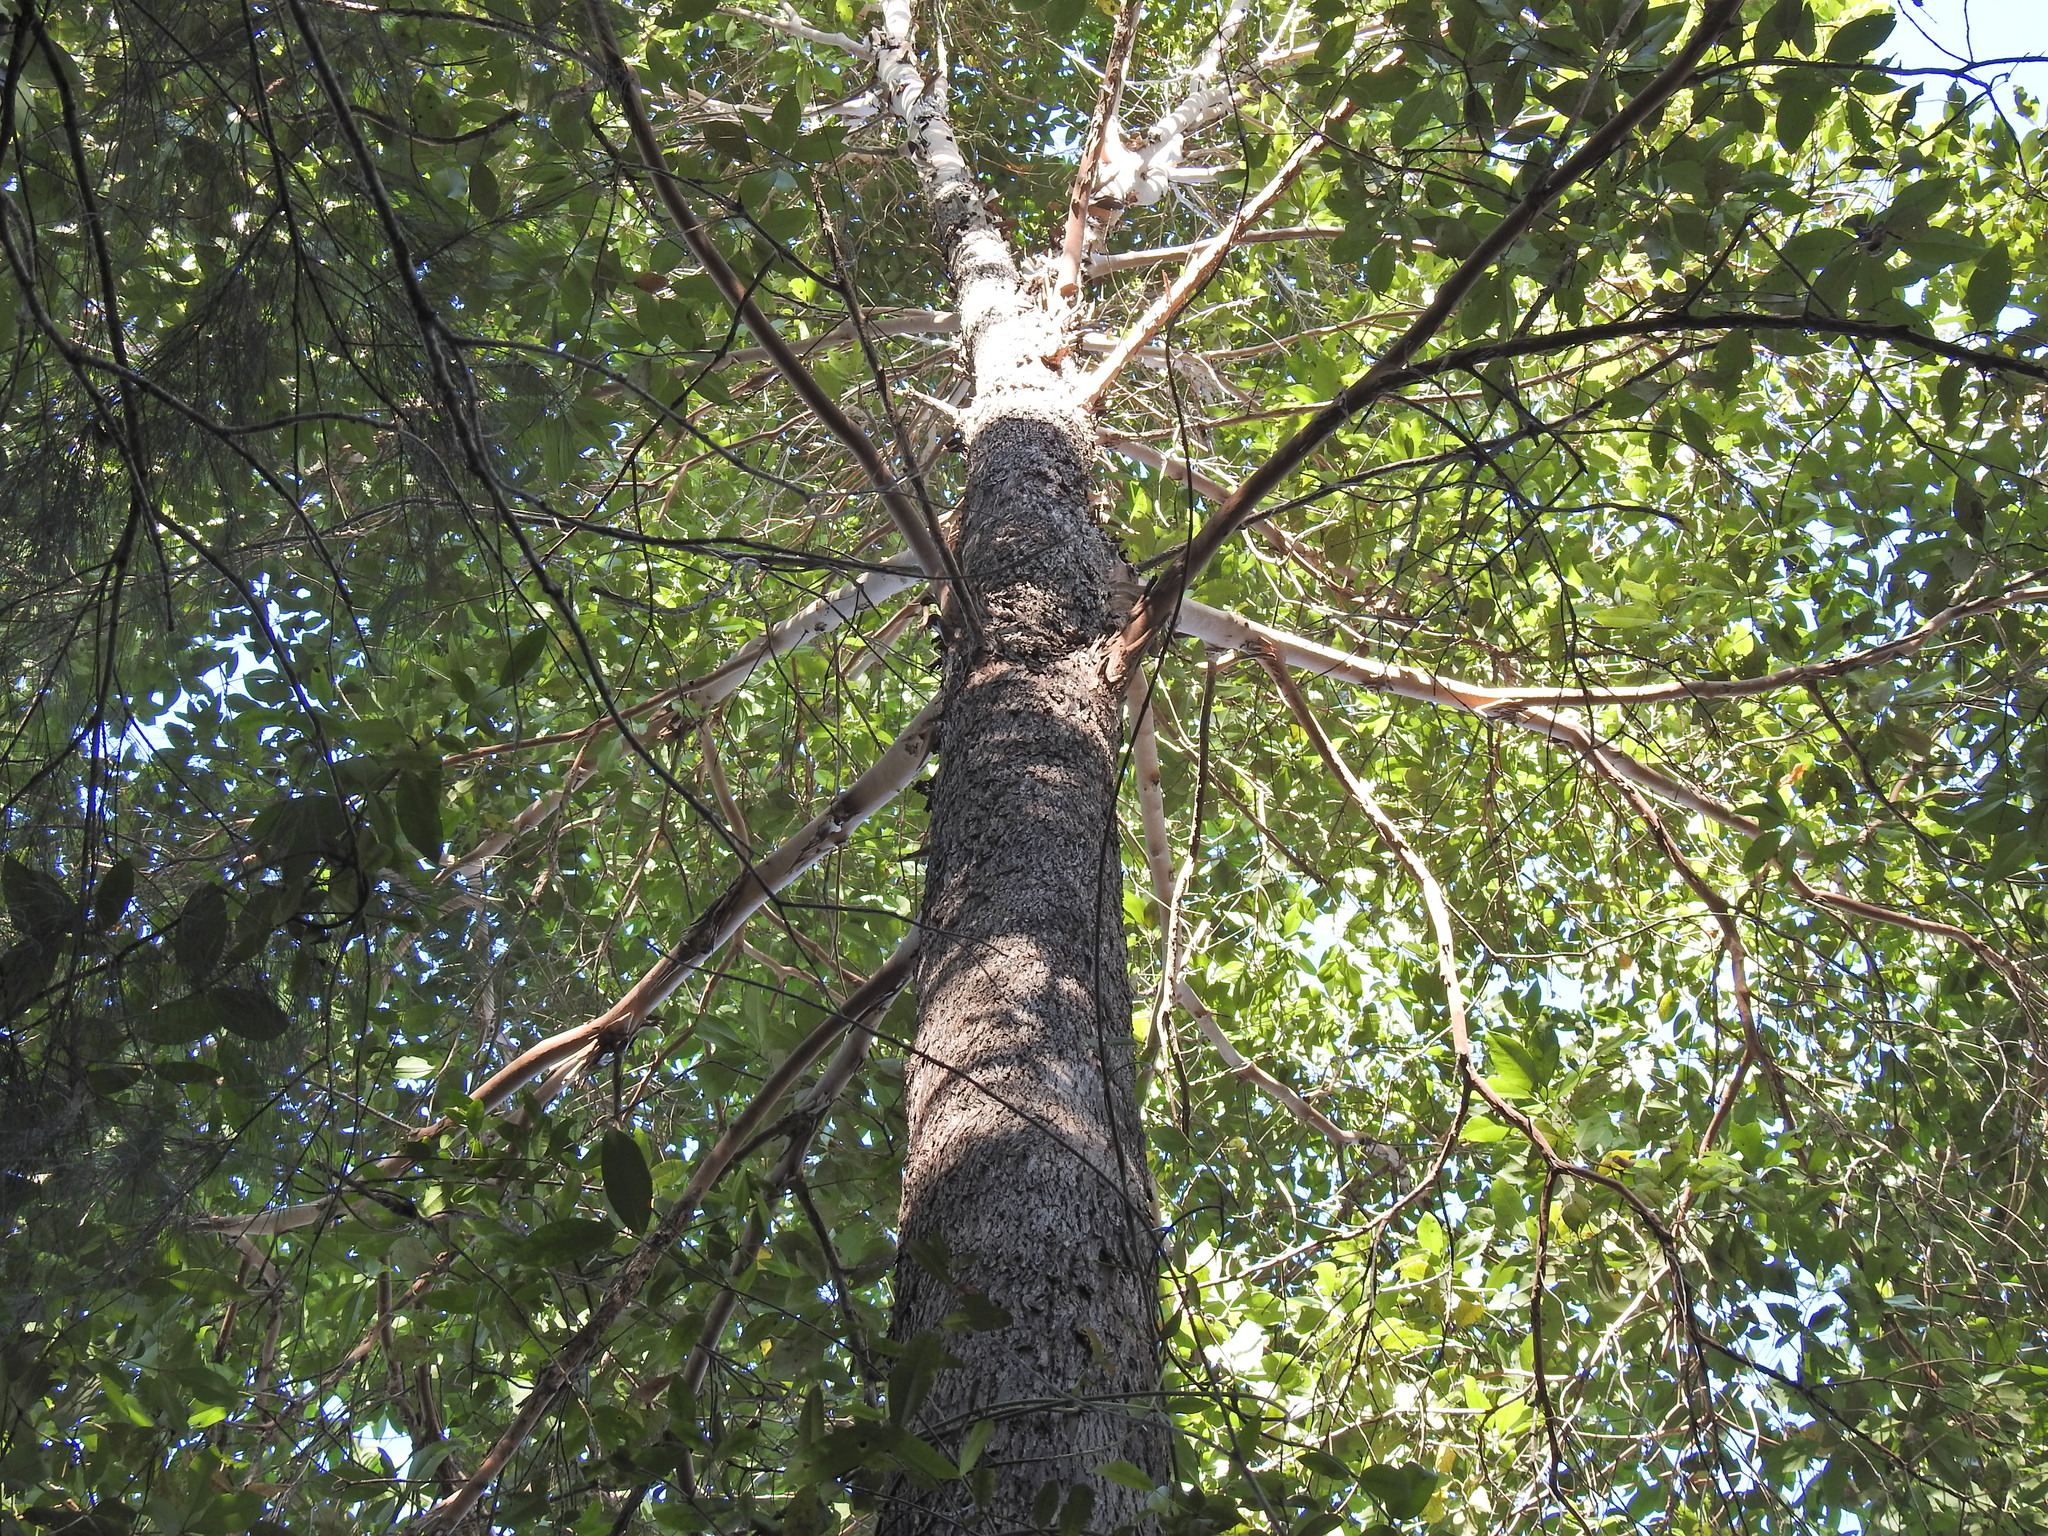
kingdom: Plantae
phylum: Tracheophyta
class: Magnoliopsida
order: Myrtales
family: Myrtaceae
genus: Lophostemon
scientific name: Lophostemon confertus
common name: Brisbane box
